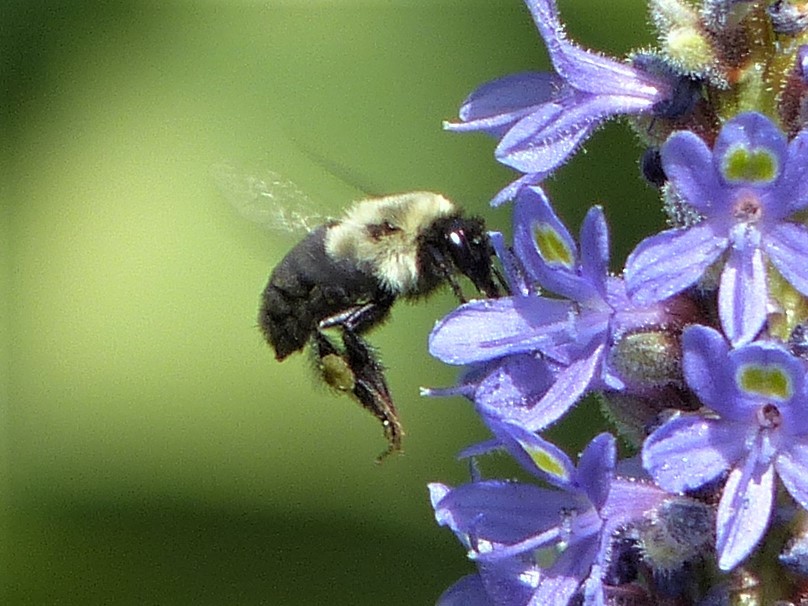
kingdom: Animalia
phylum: Arthropoda
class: Insecta
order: Hymenoptera
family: Apidae
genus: Bombus
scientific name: Bombus impatiens
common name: Common eastern bumble bee
